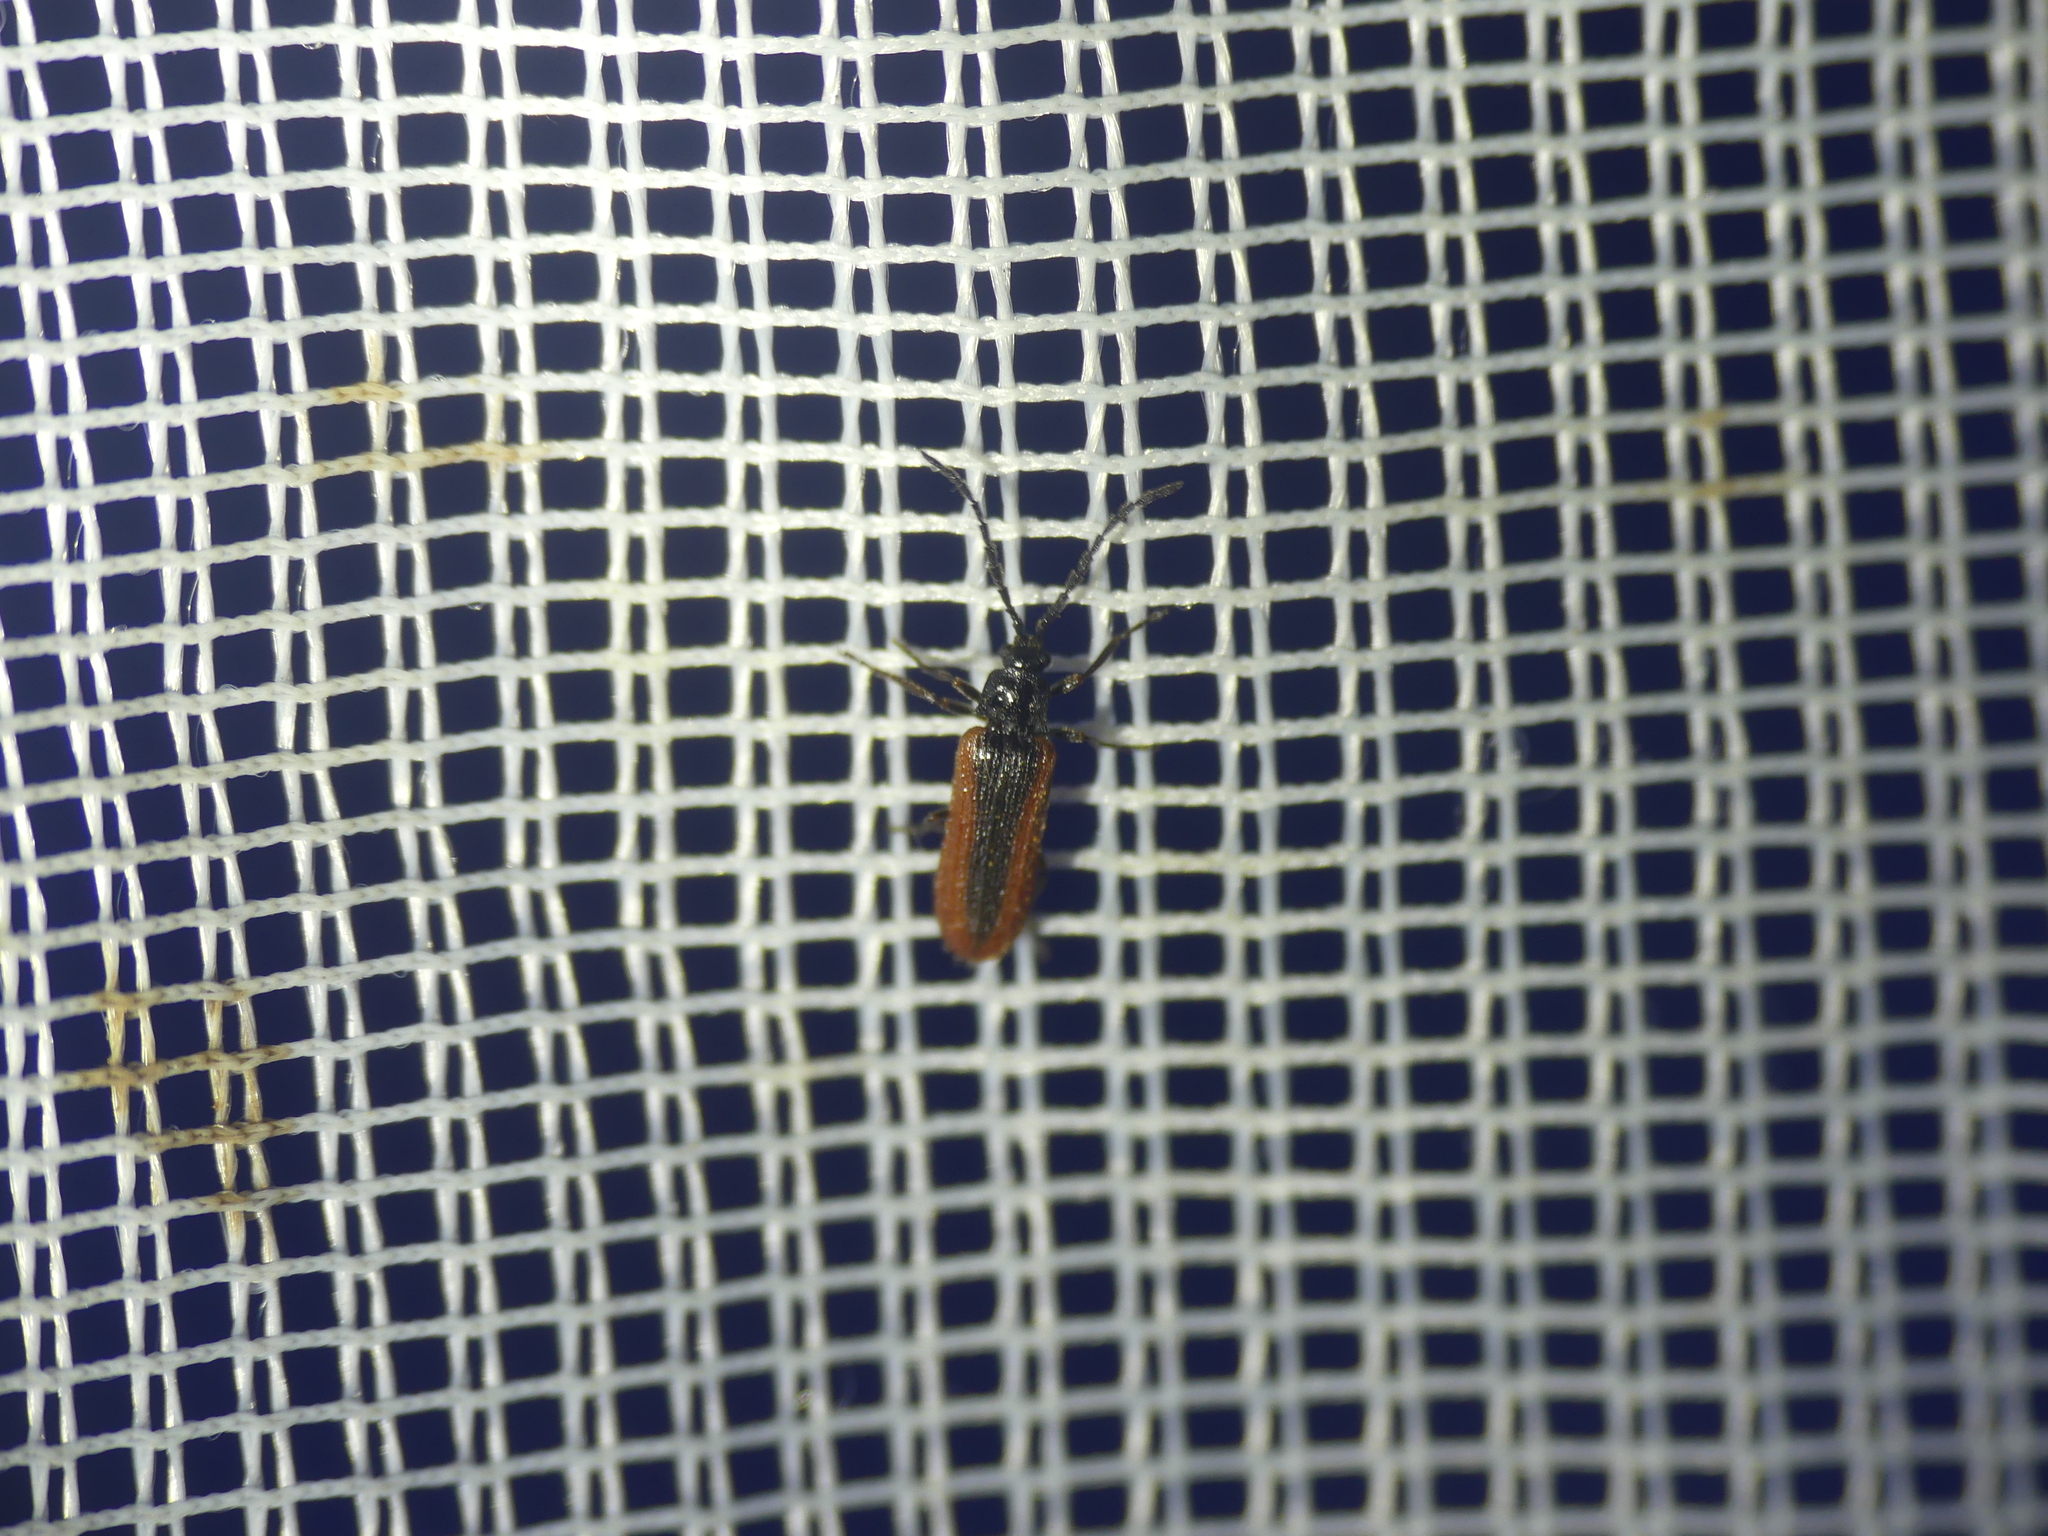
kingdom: Animalia
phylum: Arthropoda
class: Insecta
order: Coleoptera
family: Omalisidae
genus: Omalisus
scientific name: Omalisus fontisbellaquei
